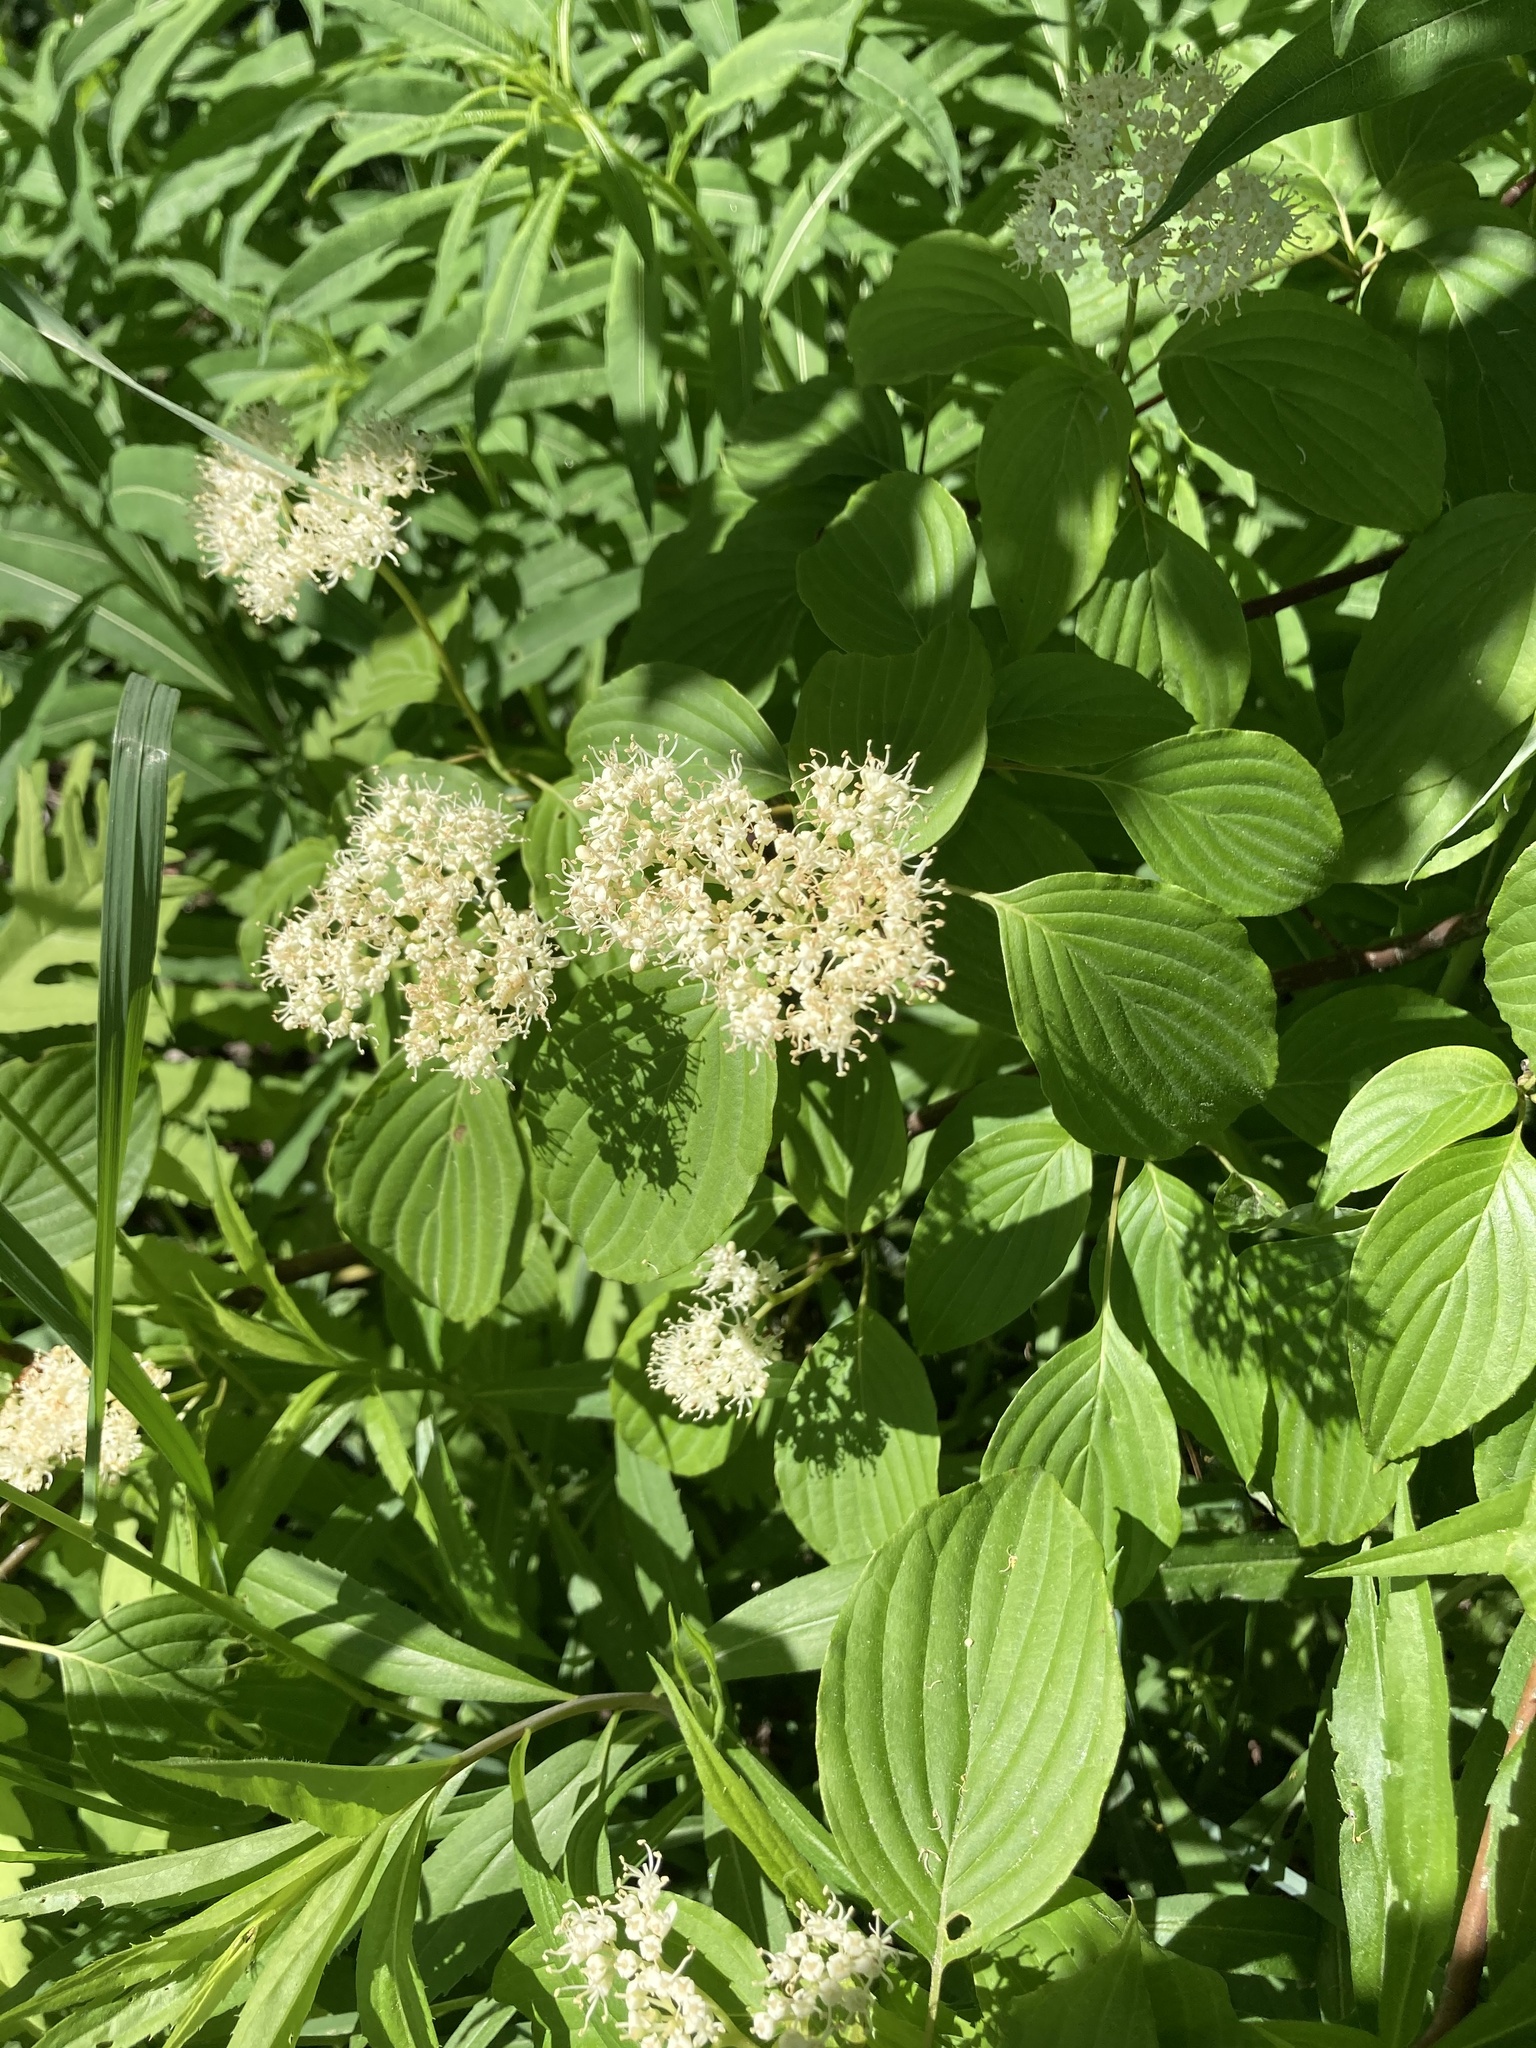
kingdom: Plantae
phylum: Tracheophyta
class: Magnoliopsida
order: Cornales
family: Cornaceae
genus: Cornus
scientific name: Cornus alternifolia
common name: Pagoda dogwood
